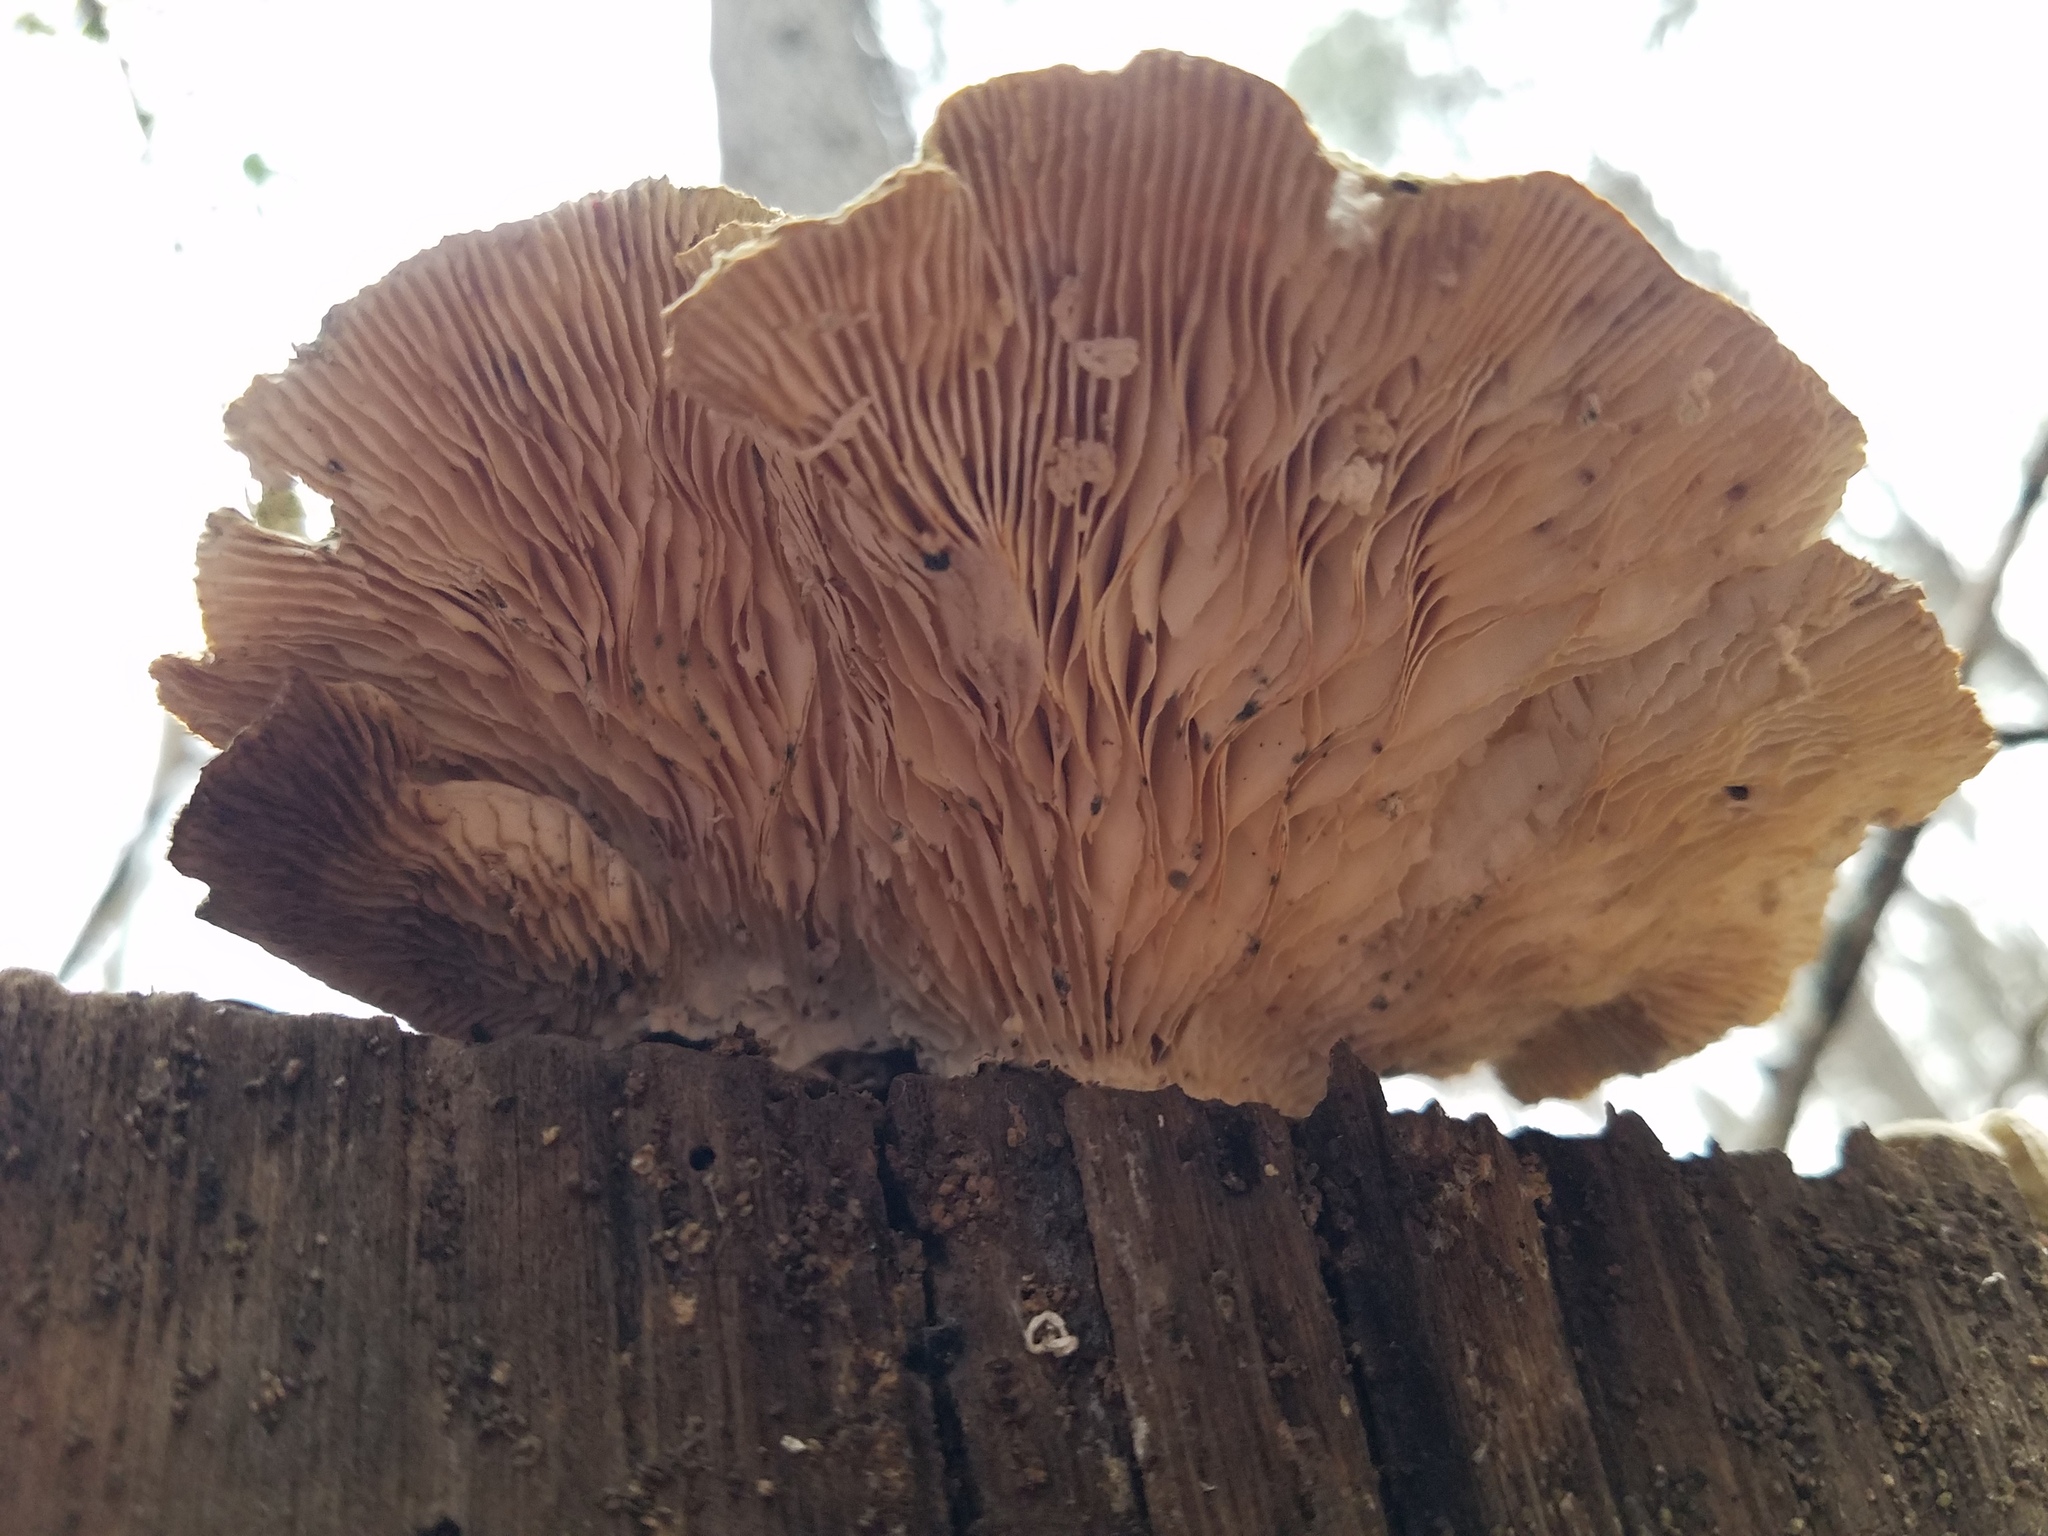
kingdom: Fungi
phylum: Basidiomycota
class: Agaricomycetes
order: Polyporales
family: Polyporaceae
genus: Lenzites
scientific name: Lenzites betulinus
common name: Birch mazegill
